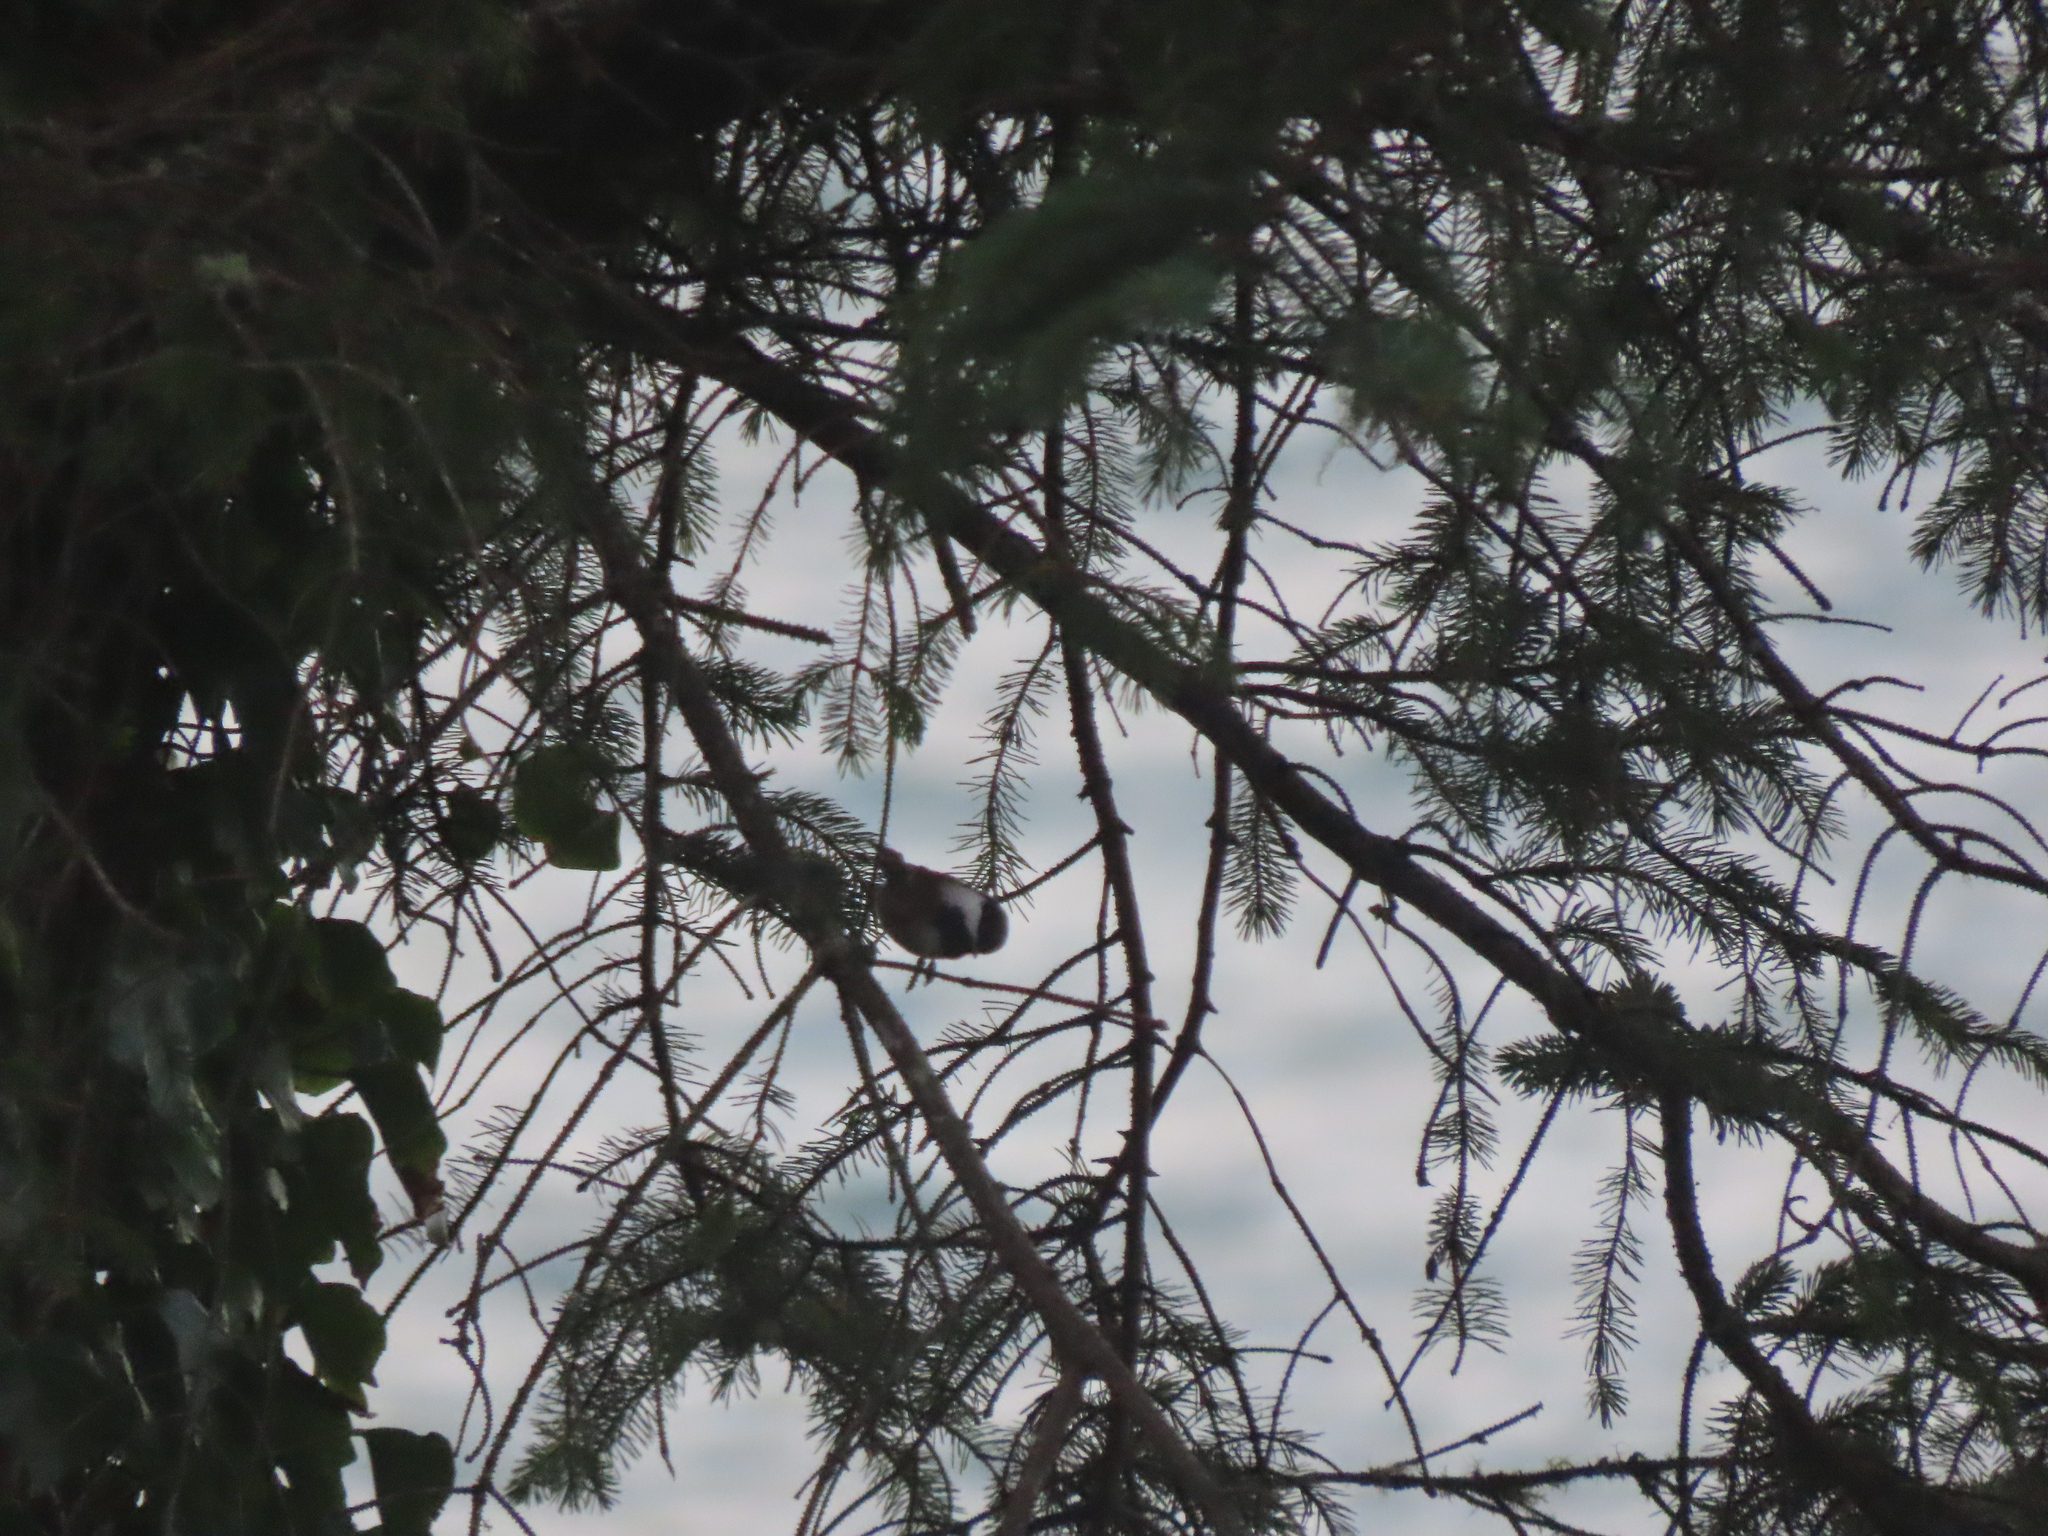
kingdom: Animalia
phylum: Chordata
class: Aves
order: Passeriformes
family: Paridae
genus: Poecile
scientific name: Poecile rufescens
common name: Chestnut-backed chickadee
